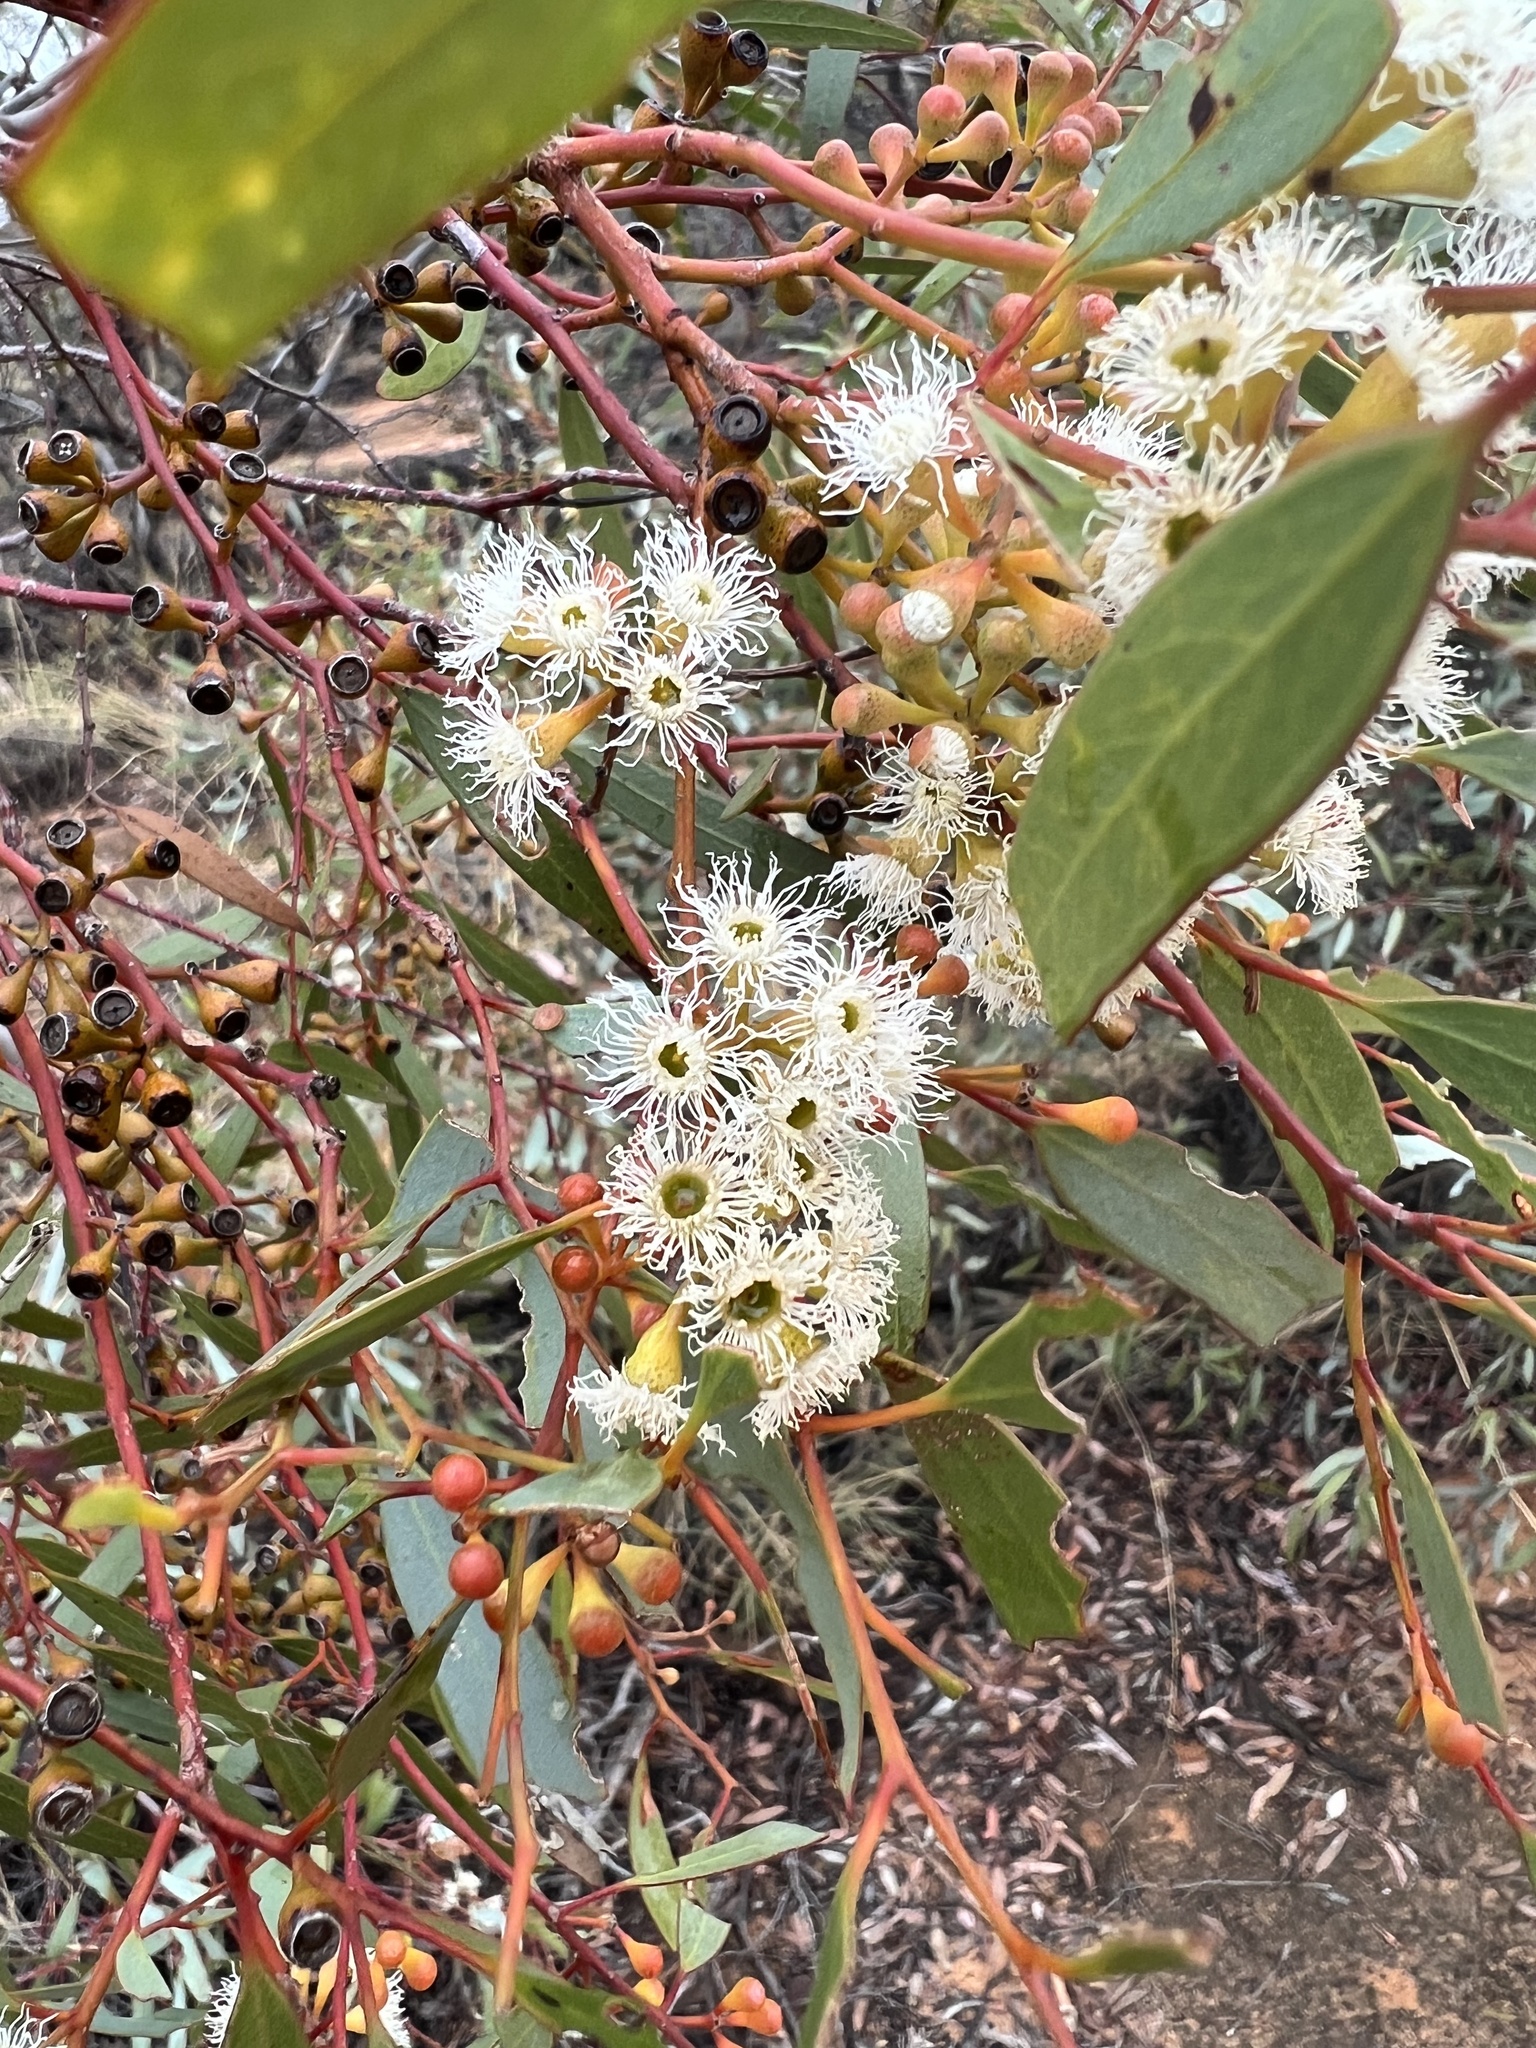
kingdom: Plantae
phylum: Tracheophyta
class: Magnoliopsida
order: Myrtales
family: Myrtaceae
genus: Eucalyptus
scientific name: Eucalyptus gracilis
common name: White mallee
